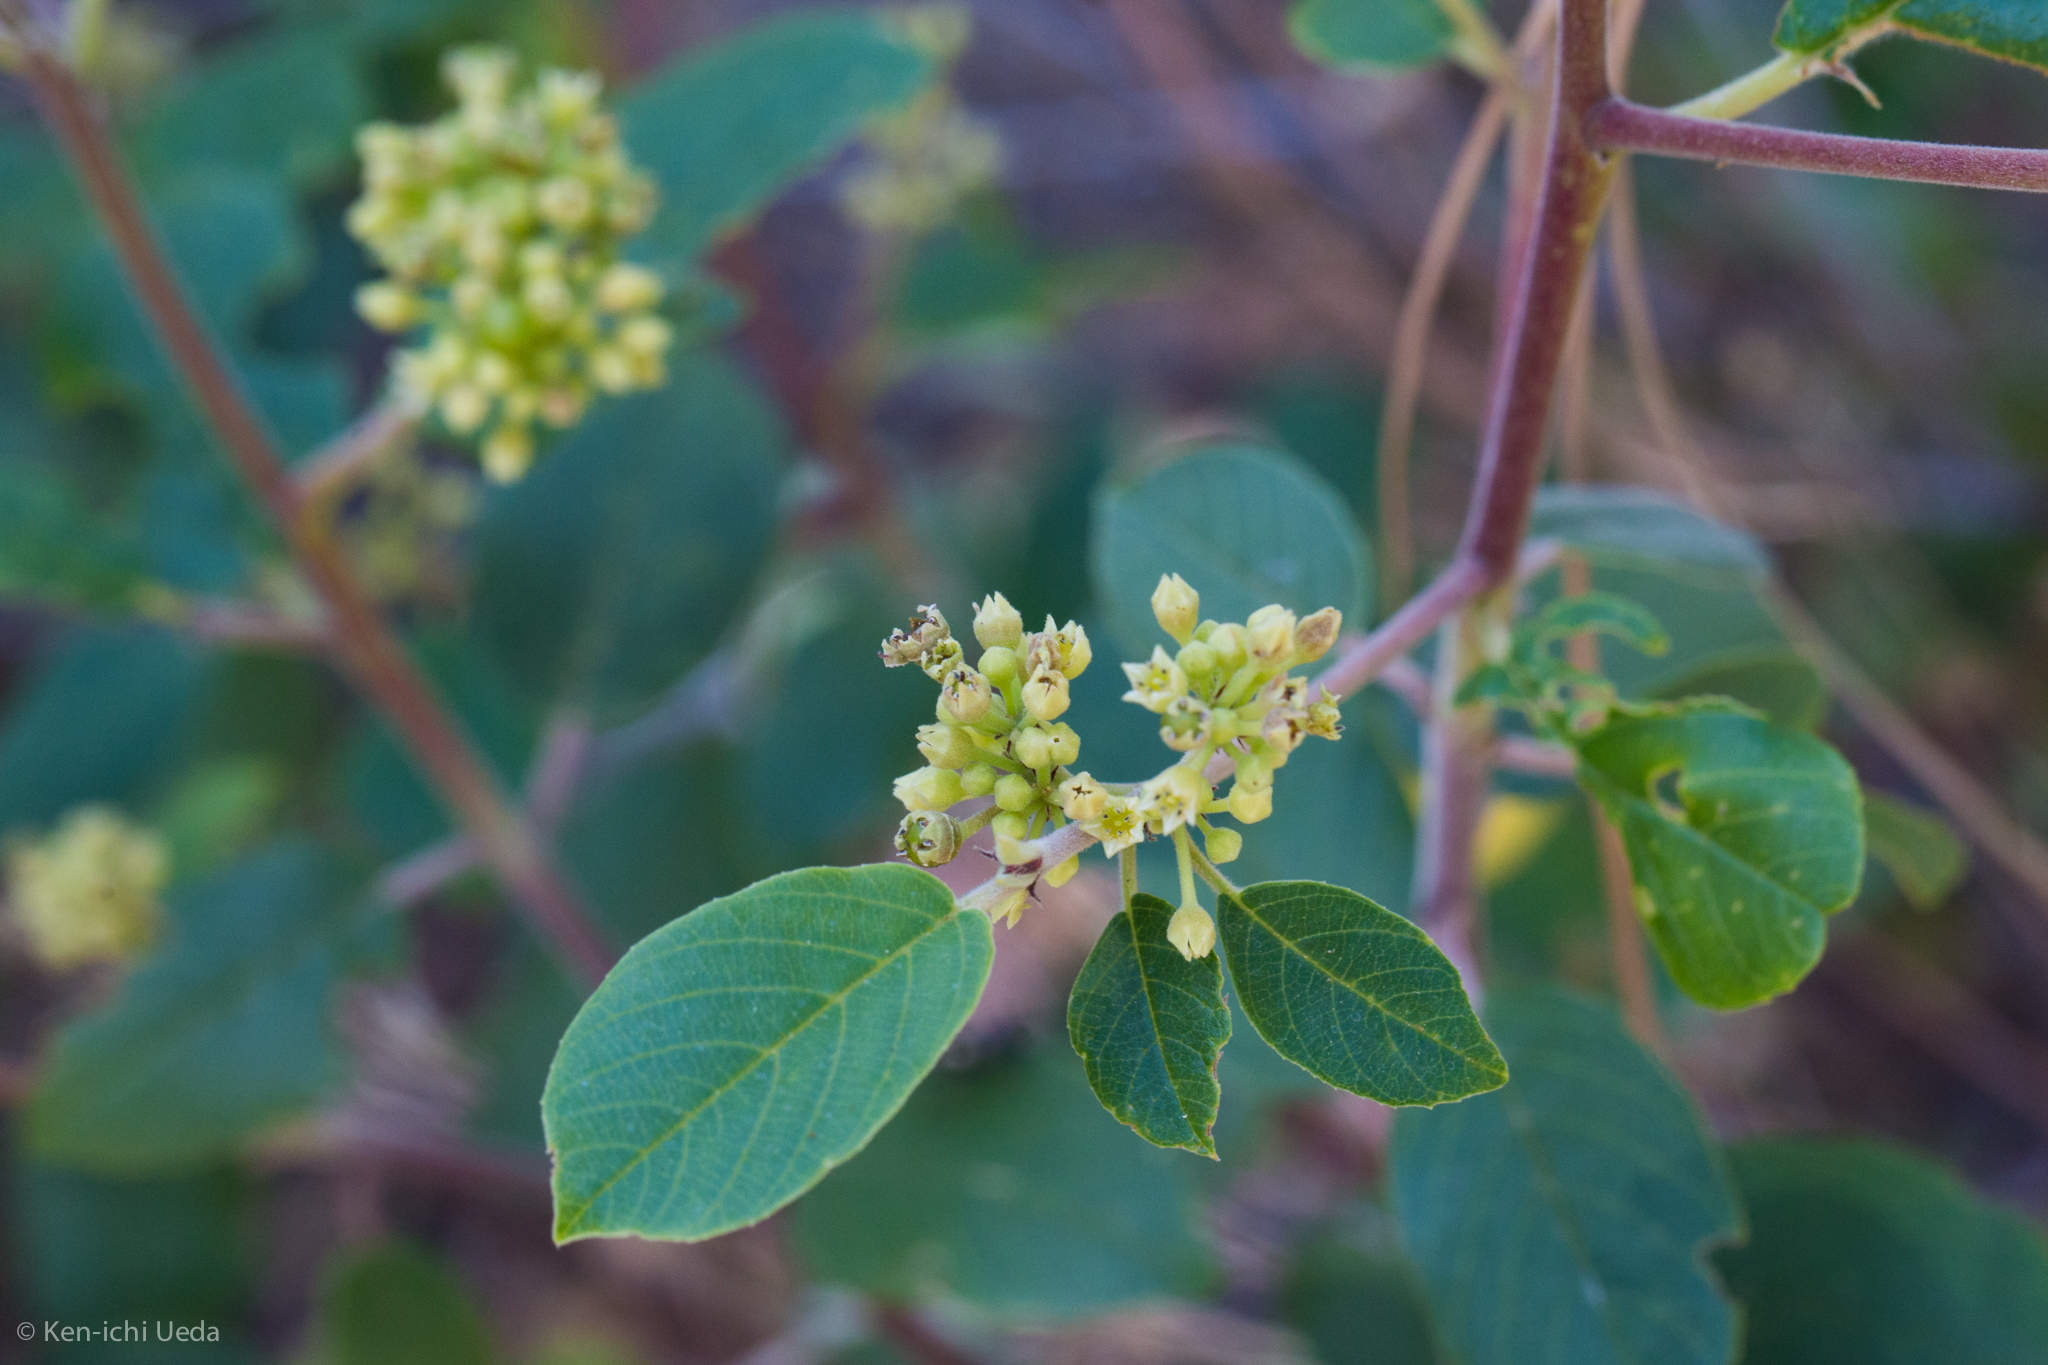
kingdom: Plantae
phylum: Tracheophyta
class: Magnoliopsida
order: Rosales
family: Rhamnaceae
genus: Frangula
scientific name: Frangula californica
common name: California buckthorn
